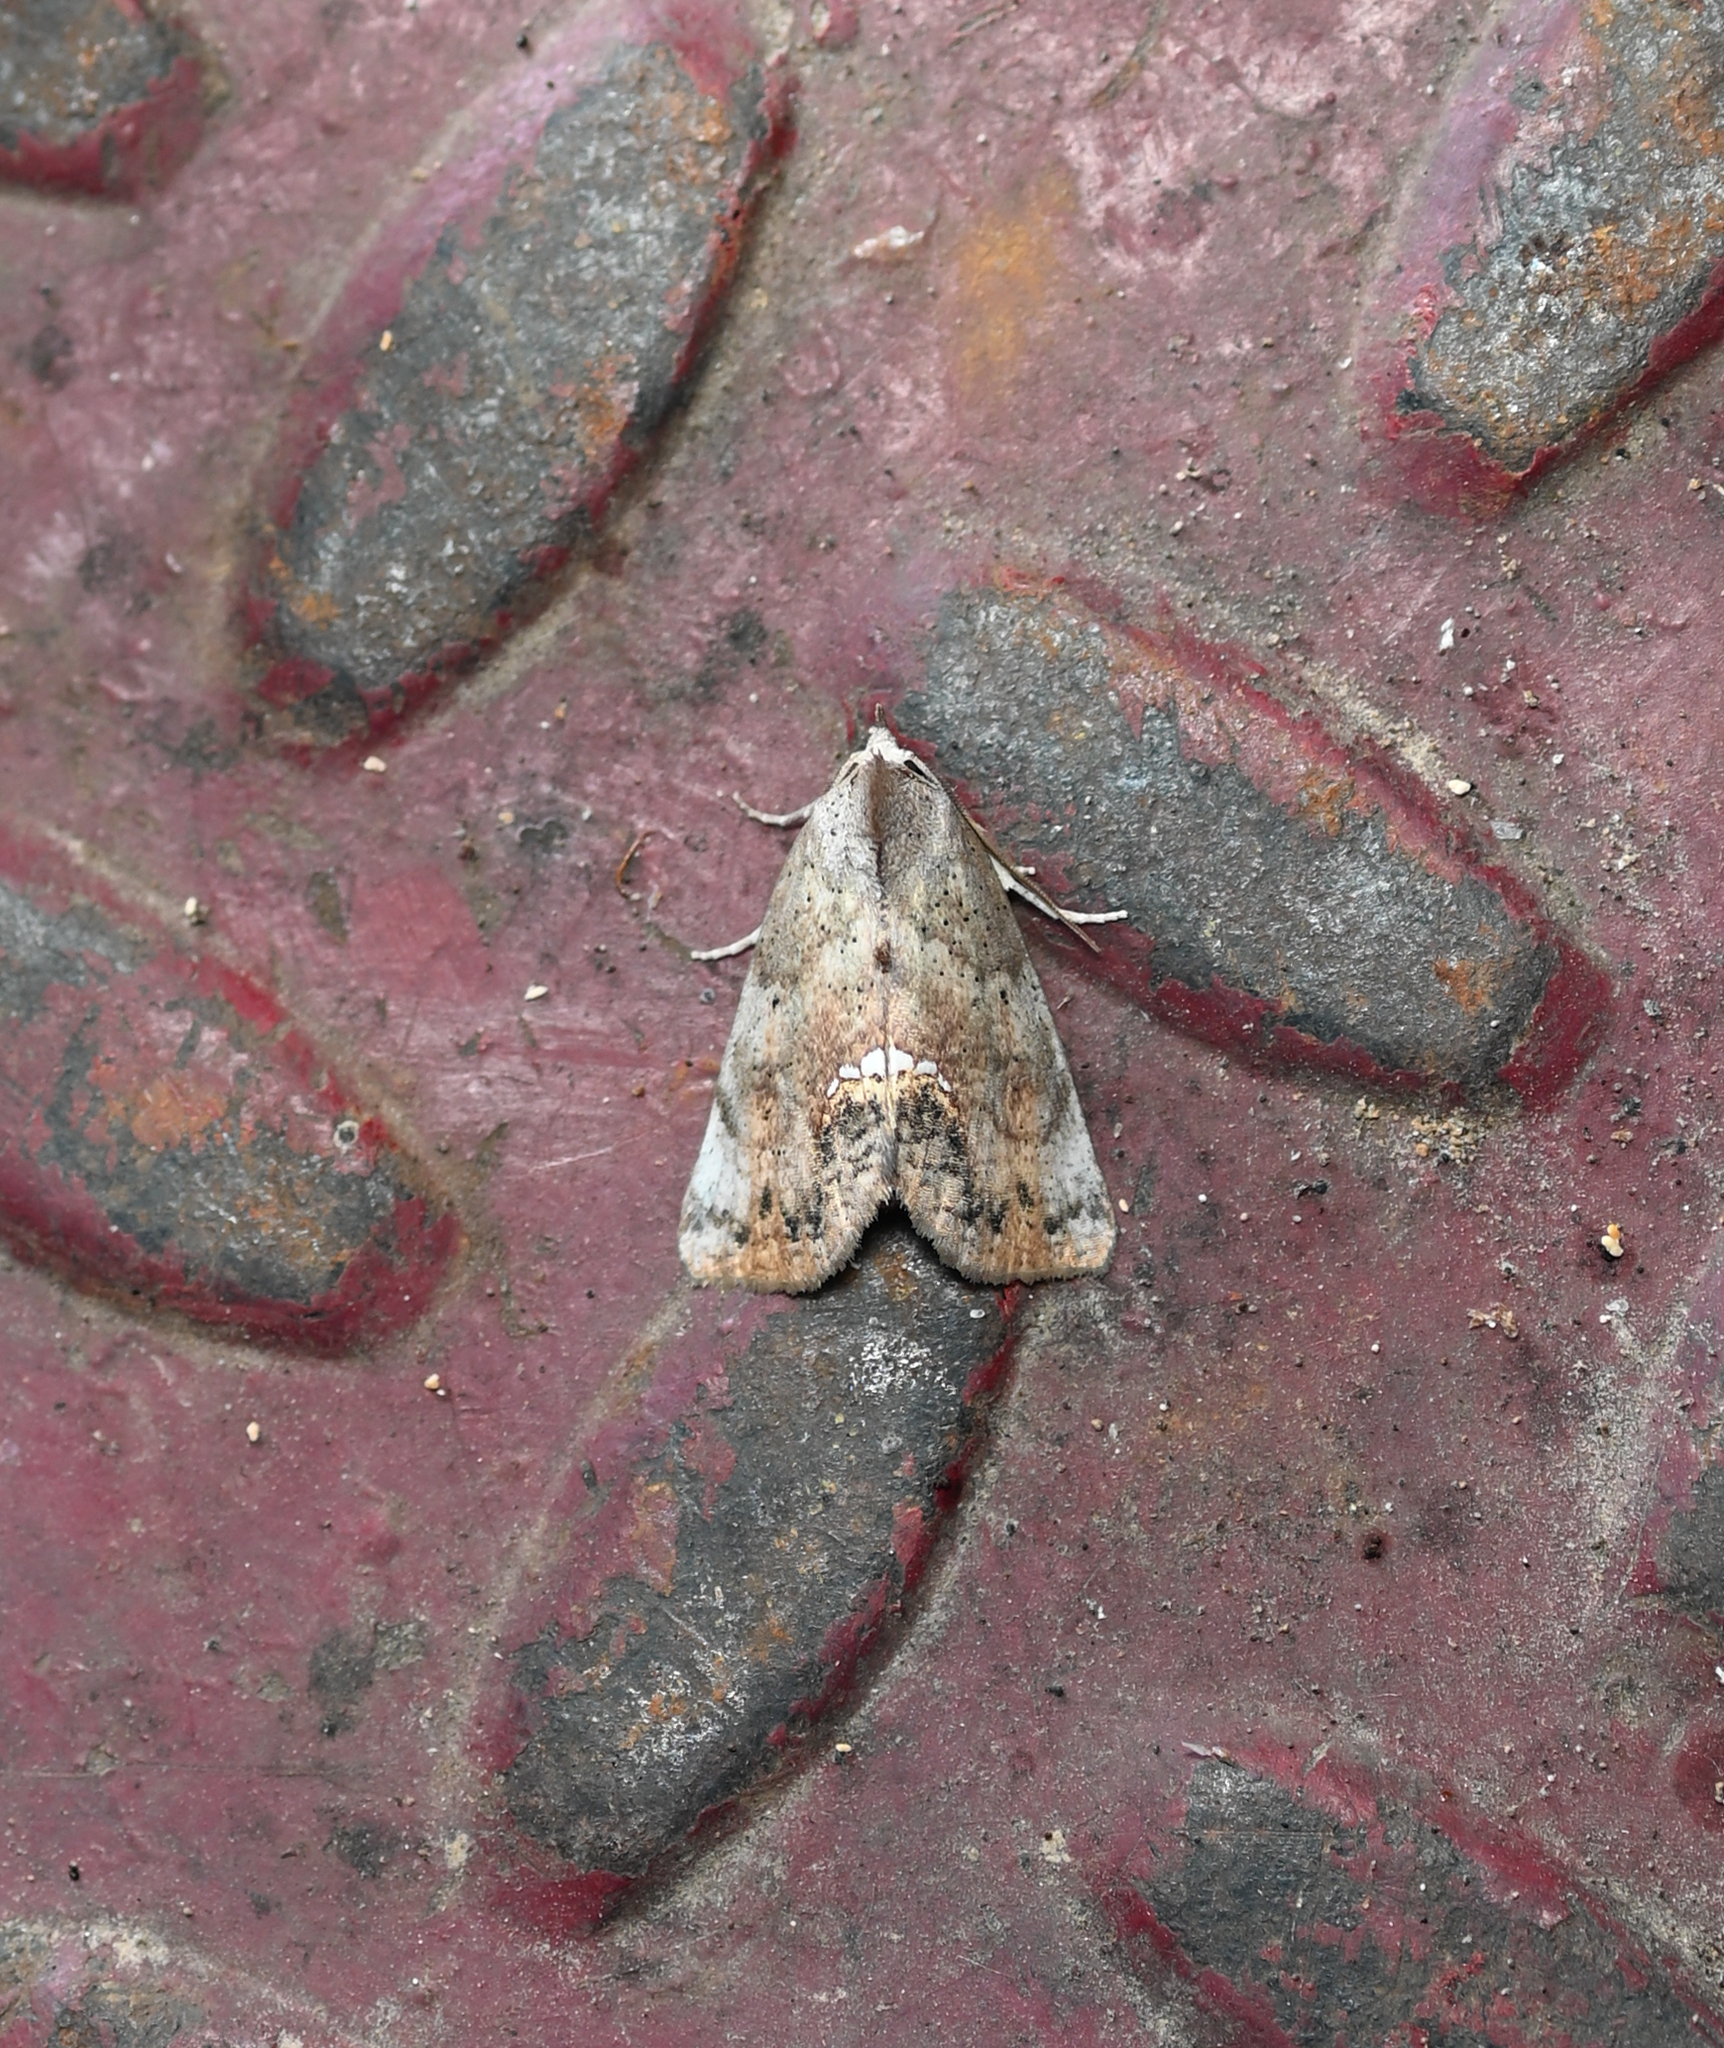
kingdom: Animalia
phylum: Arthropoda
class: Insecta
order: Lepidoptera
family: Erebidae
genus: Hypsoropha
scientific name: Hypsoropha hormos
